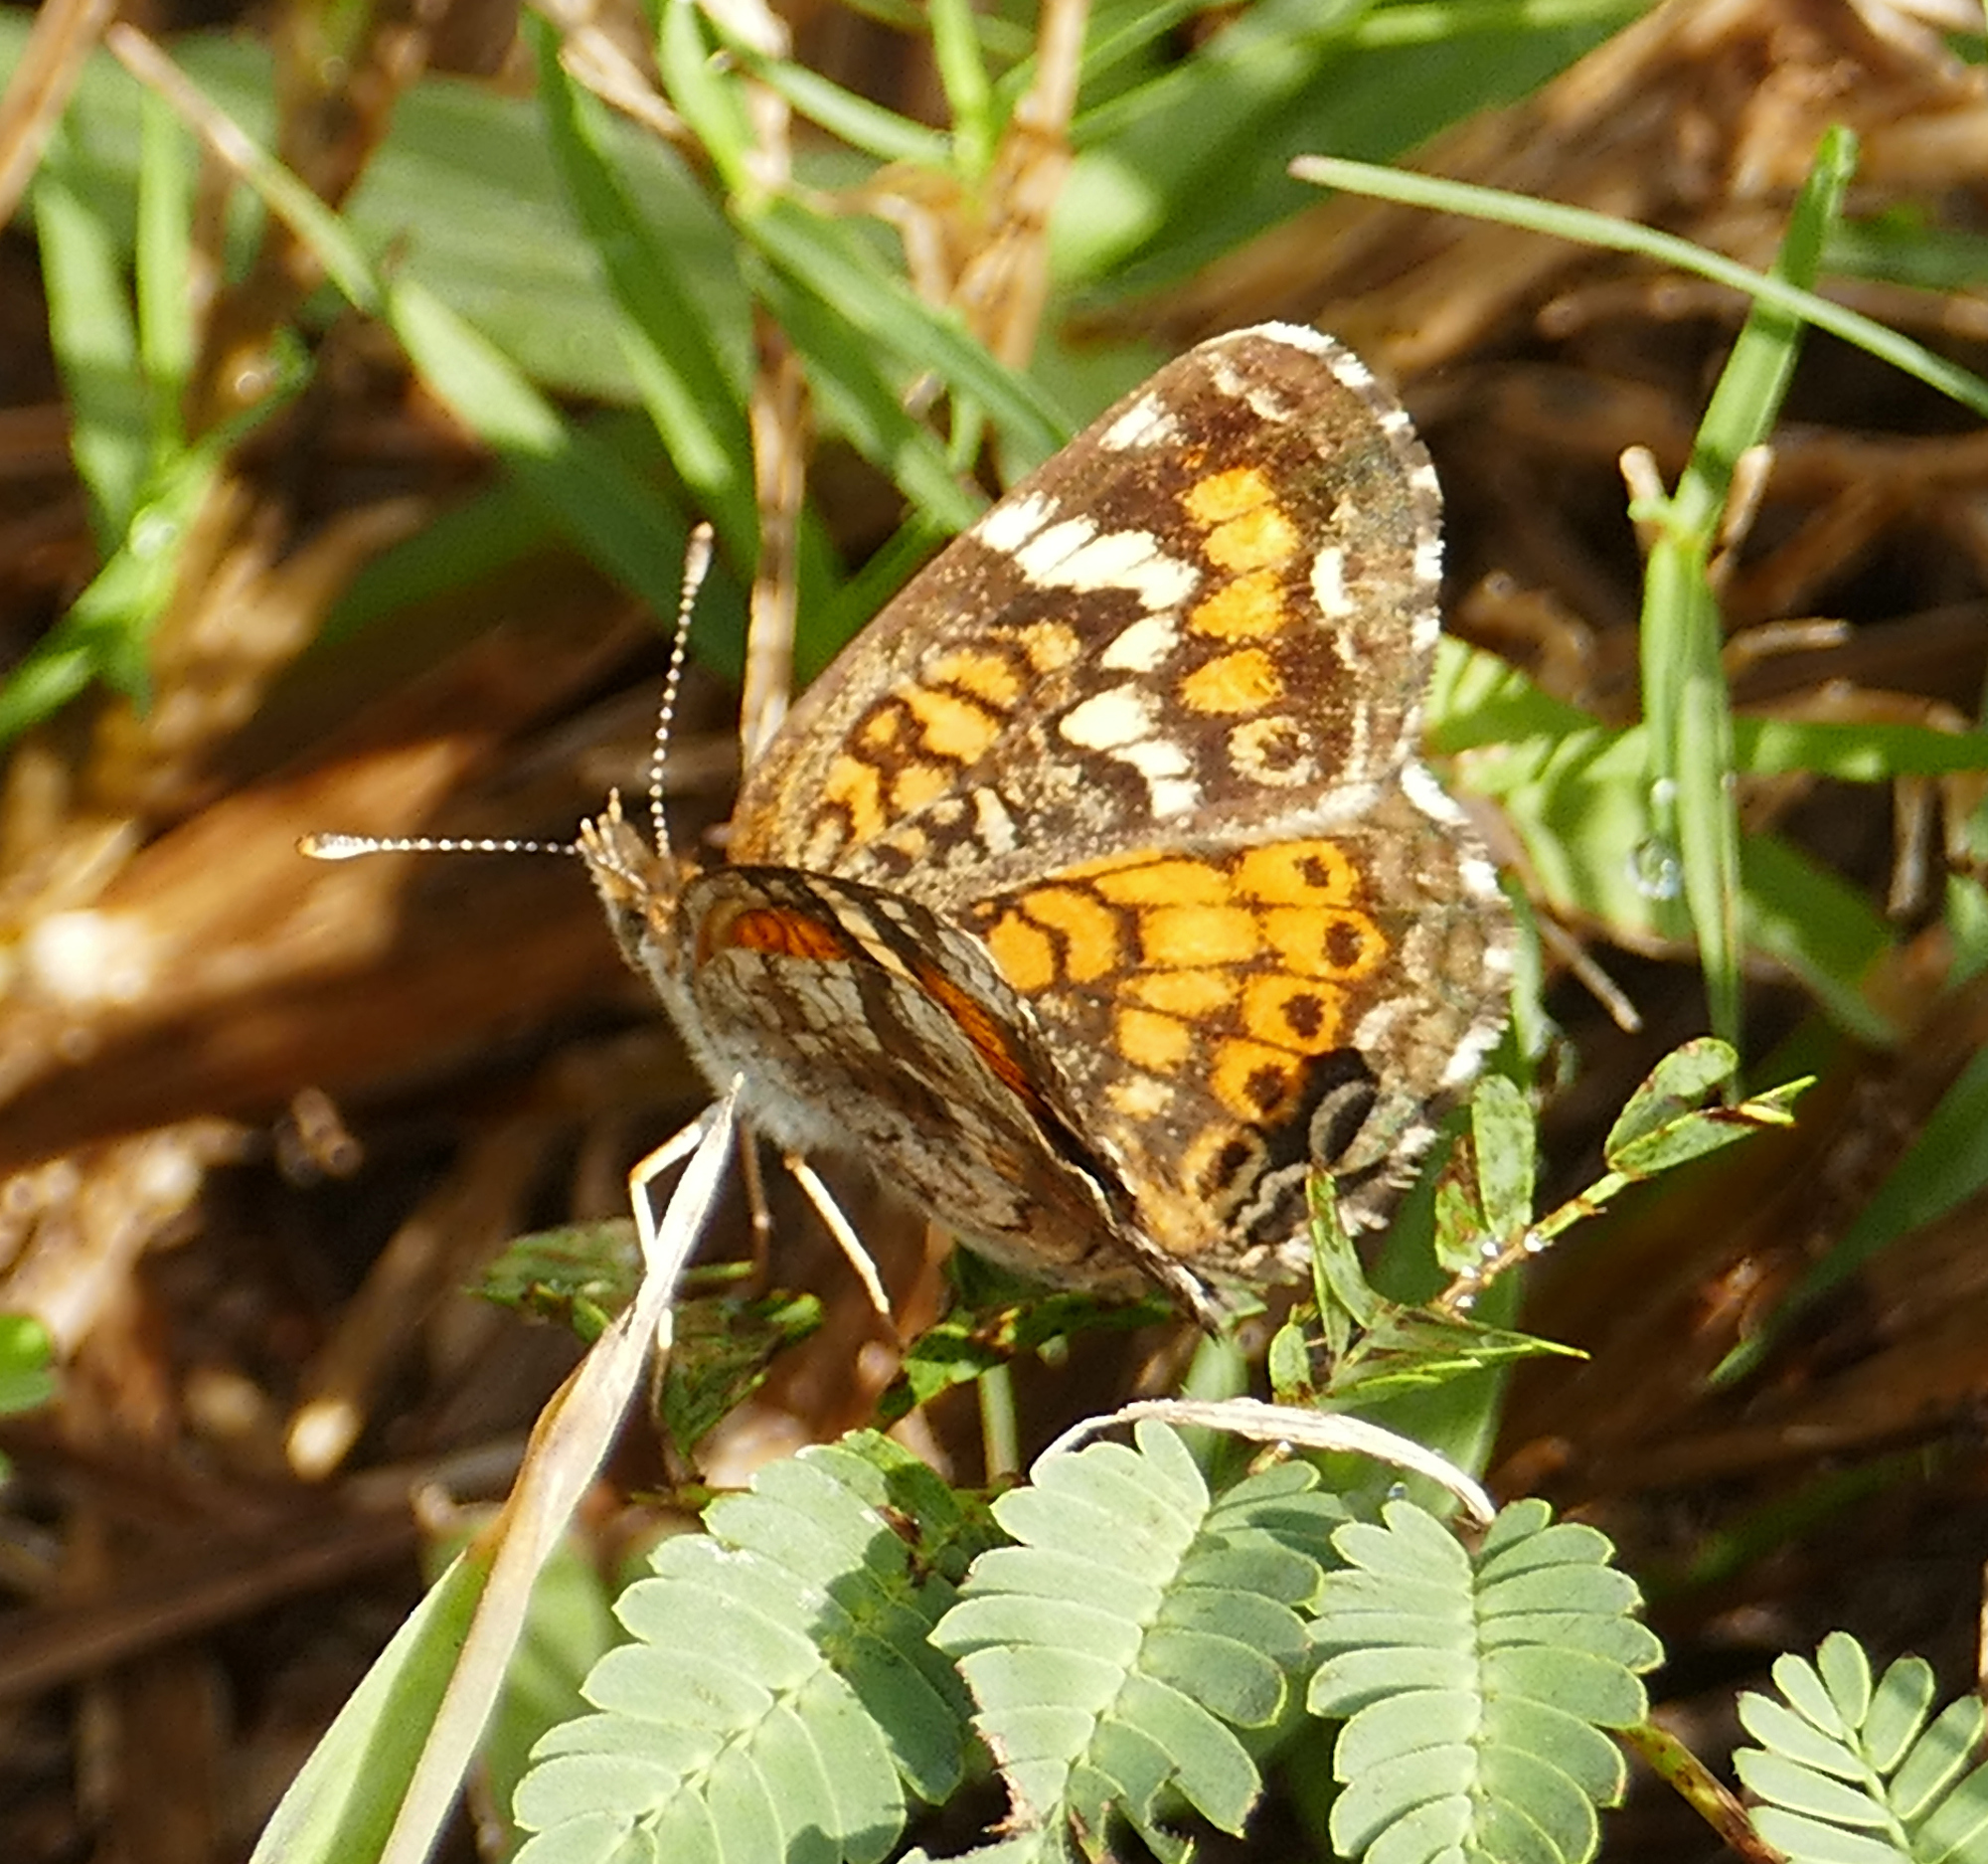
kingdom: Animalia
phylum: Arthropoda
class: Insecta
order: Lepidoptera
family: Nymphalidae
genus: Phyciodes
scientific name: Phyciodes phaon
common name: Phaon crescent
